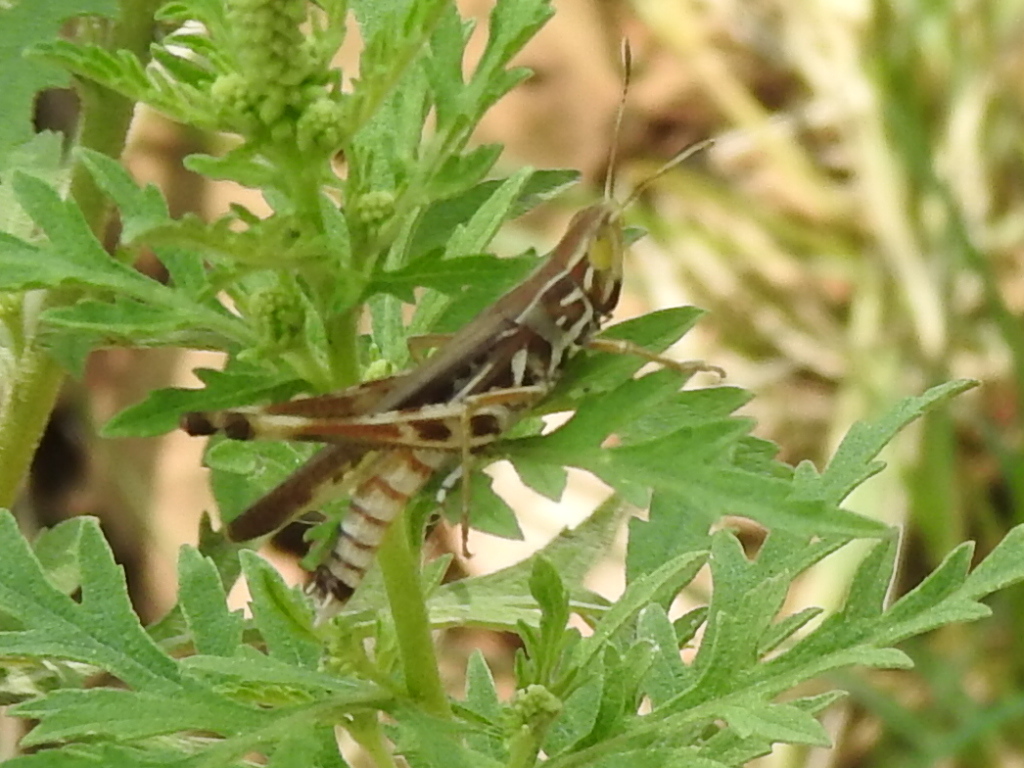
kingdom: Animalia
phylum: Arthropoda
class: Insecta
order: Orthoptera
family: Acrididae
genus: Syrbula
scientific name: Syrbula admirabilis
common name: Handsome grasshopper
